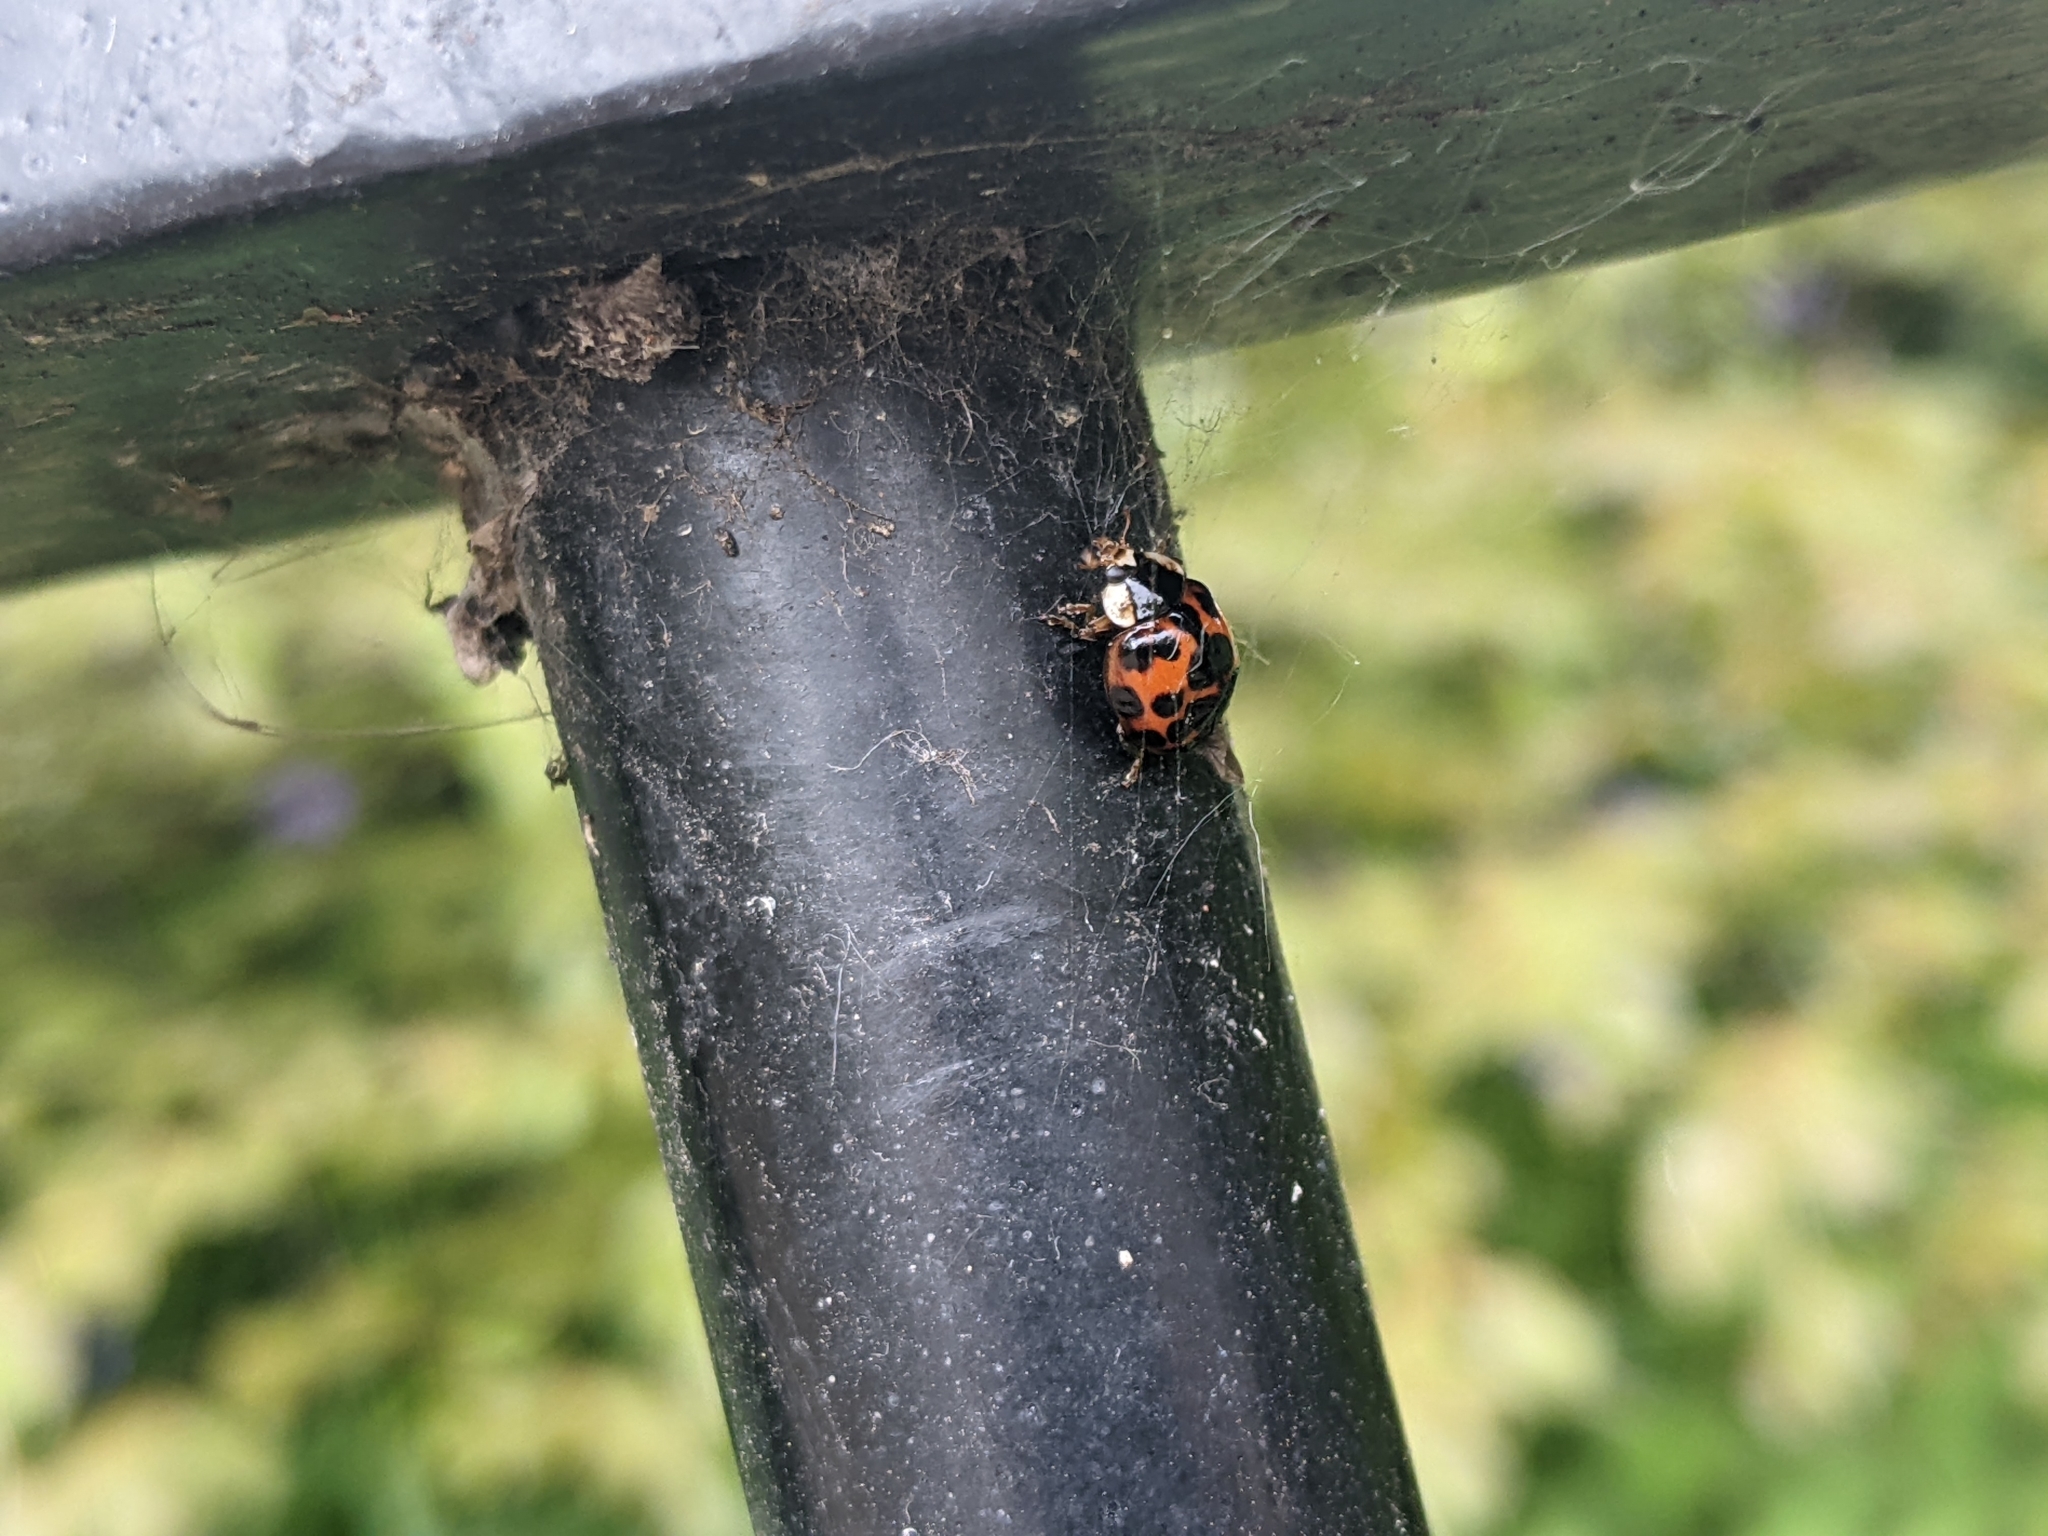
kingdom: Animalia
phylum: Arthropoda
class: Insecta
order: Coleoptera
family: Coccinellidae
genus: Harmonia
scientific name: Harmonia axyridis
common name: Harlequin ladybird
